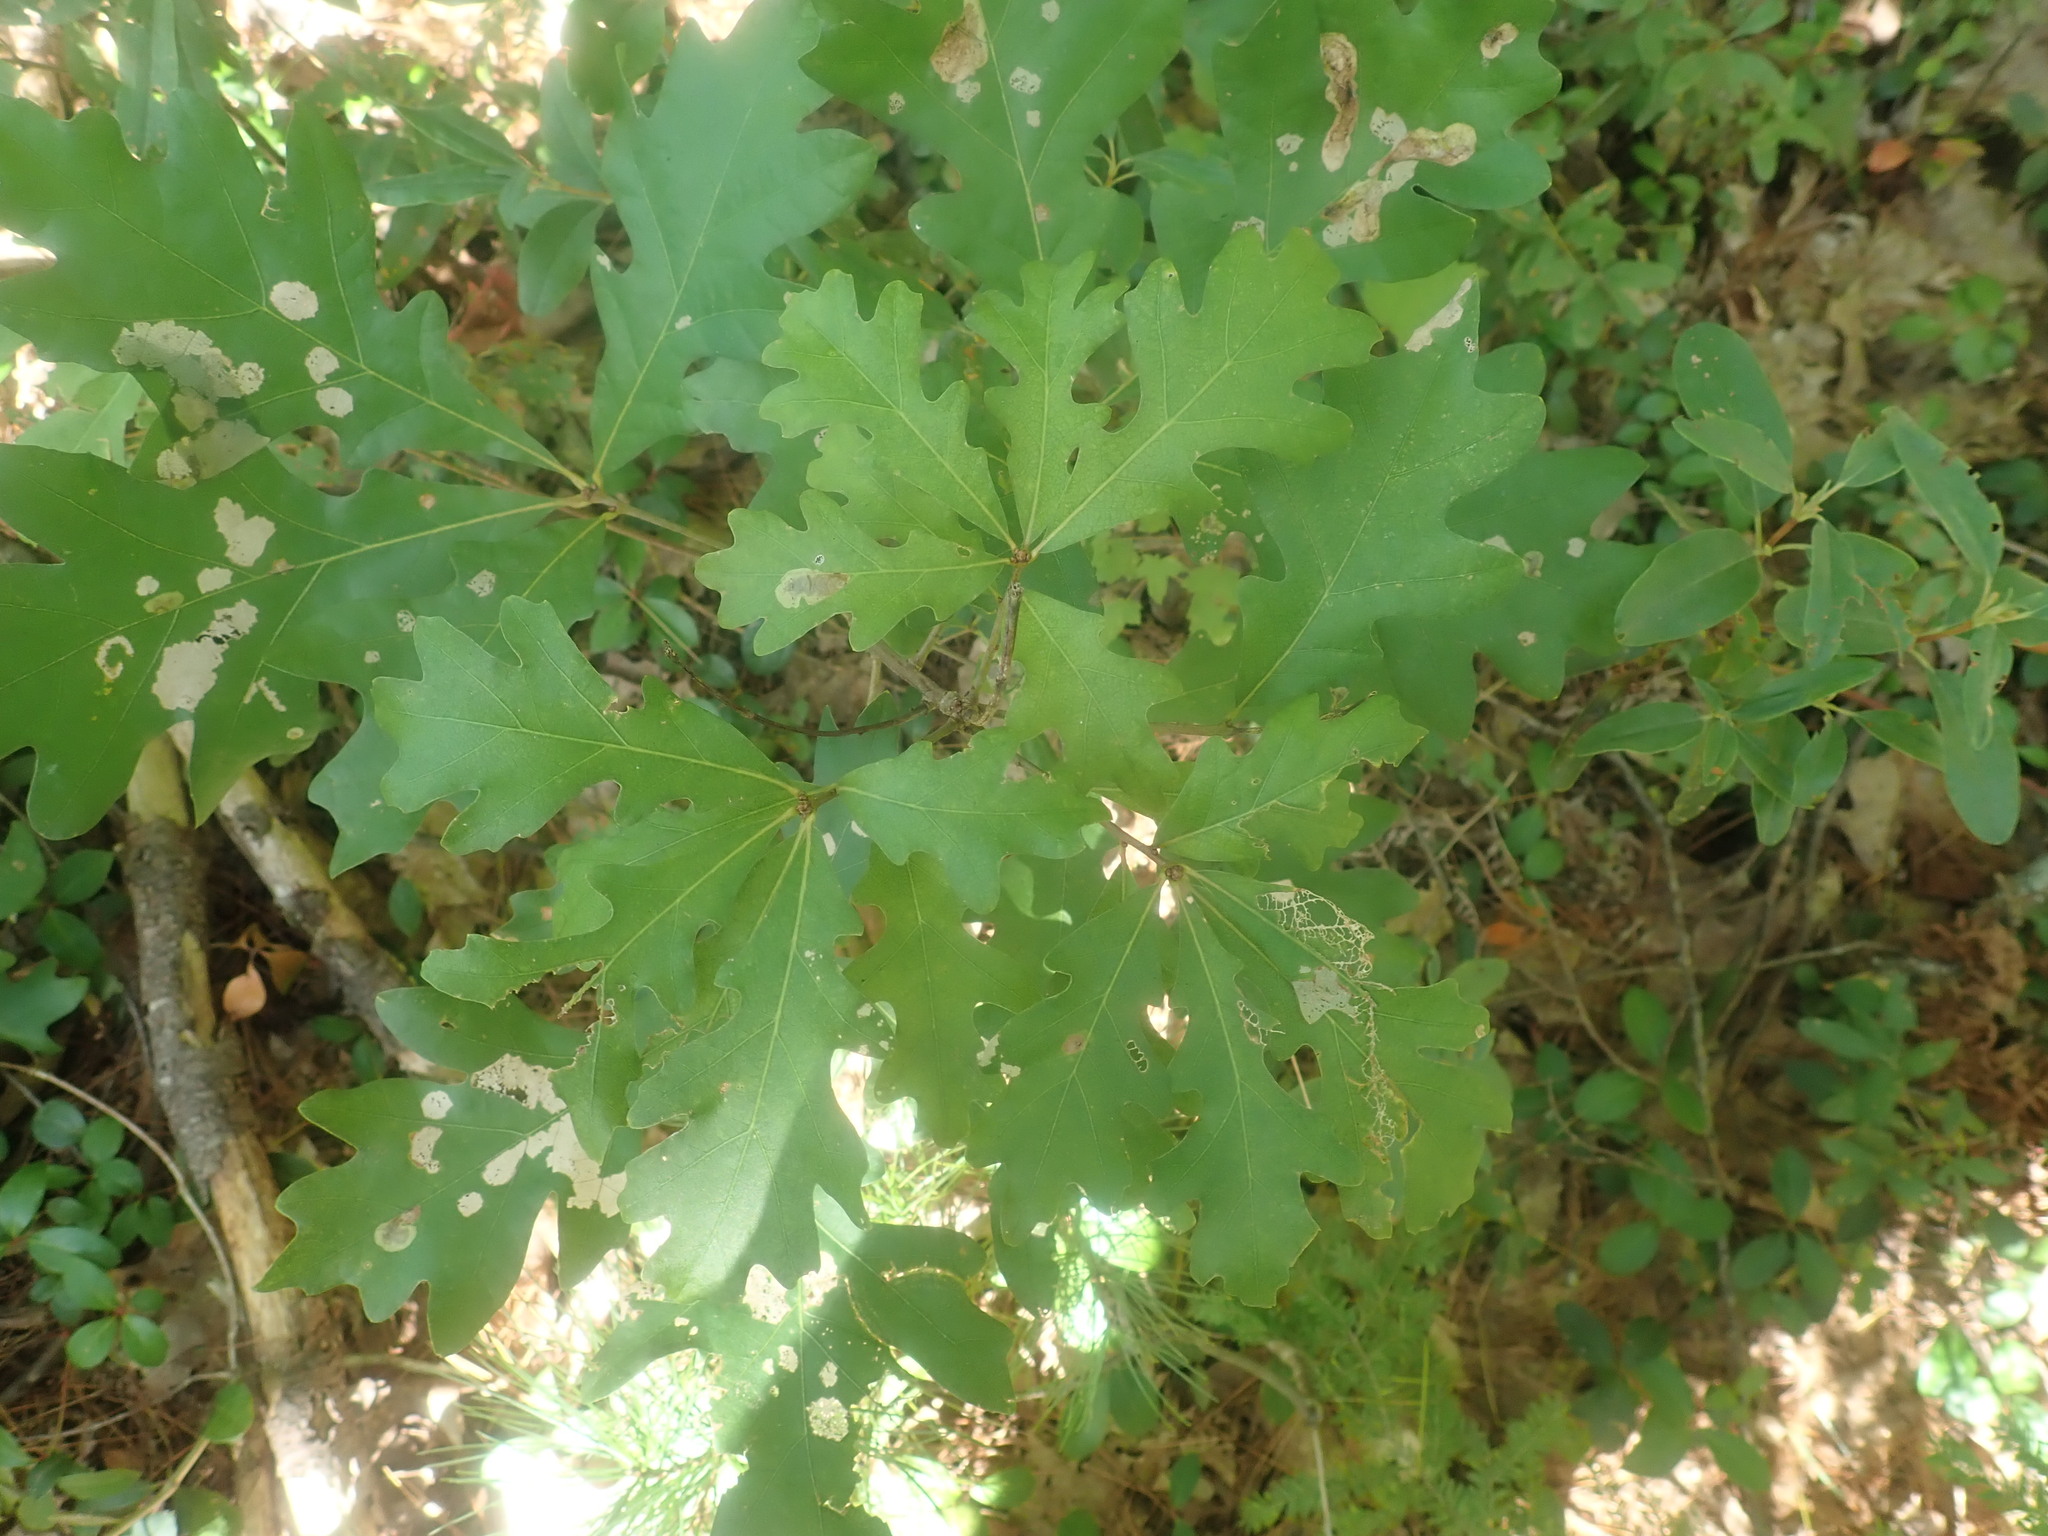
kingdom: Plantae
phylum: Tracheophyta
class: Magnoliopsida
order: Fagales
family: Fagaceae
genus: Quercus
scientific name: Quercus alba
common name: White oak
